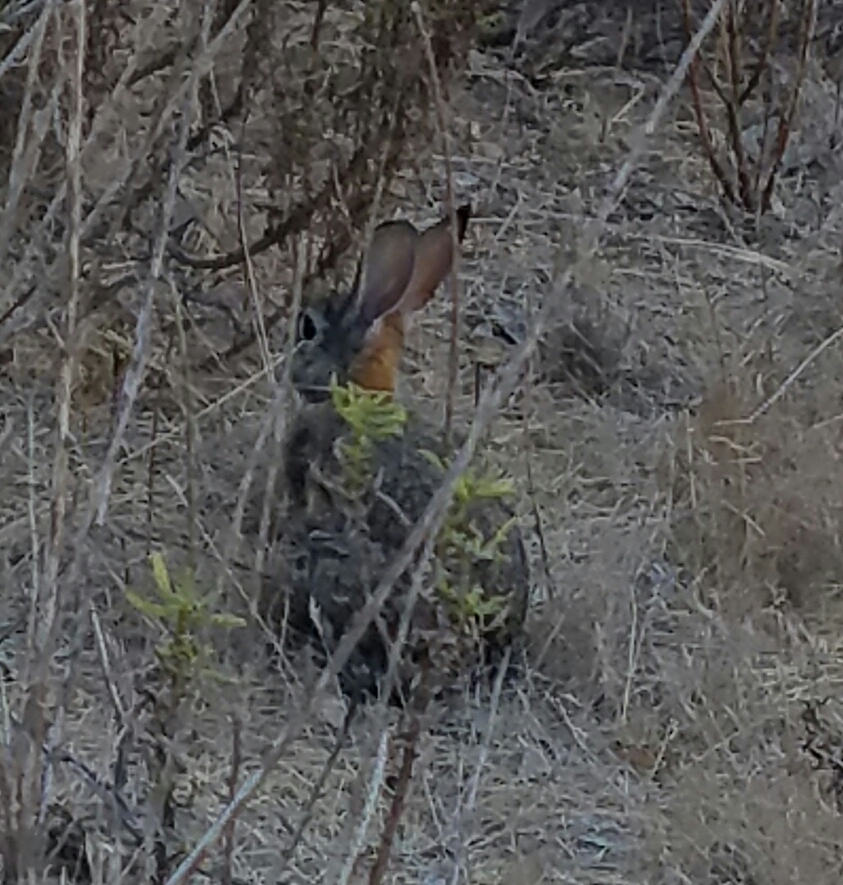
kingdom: Animalia
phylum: Chordata
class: Mammalia
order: Lagomorpha
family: Leporidae
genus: Sylvilagus
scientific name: Sylvilagus audubonii
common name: Desert cottontail
